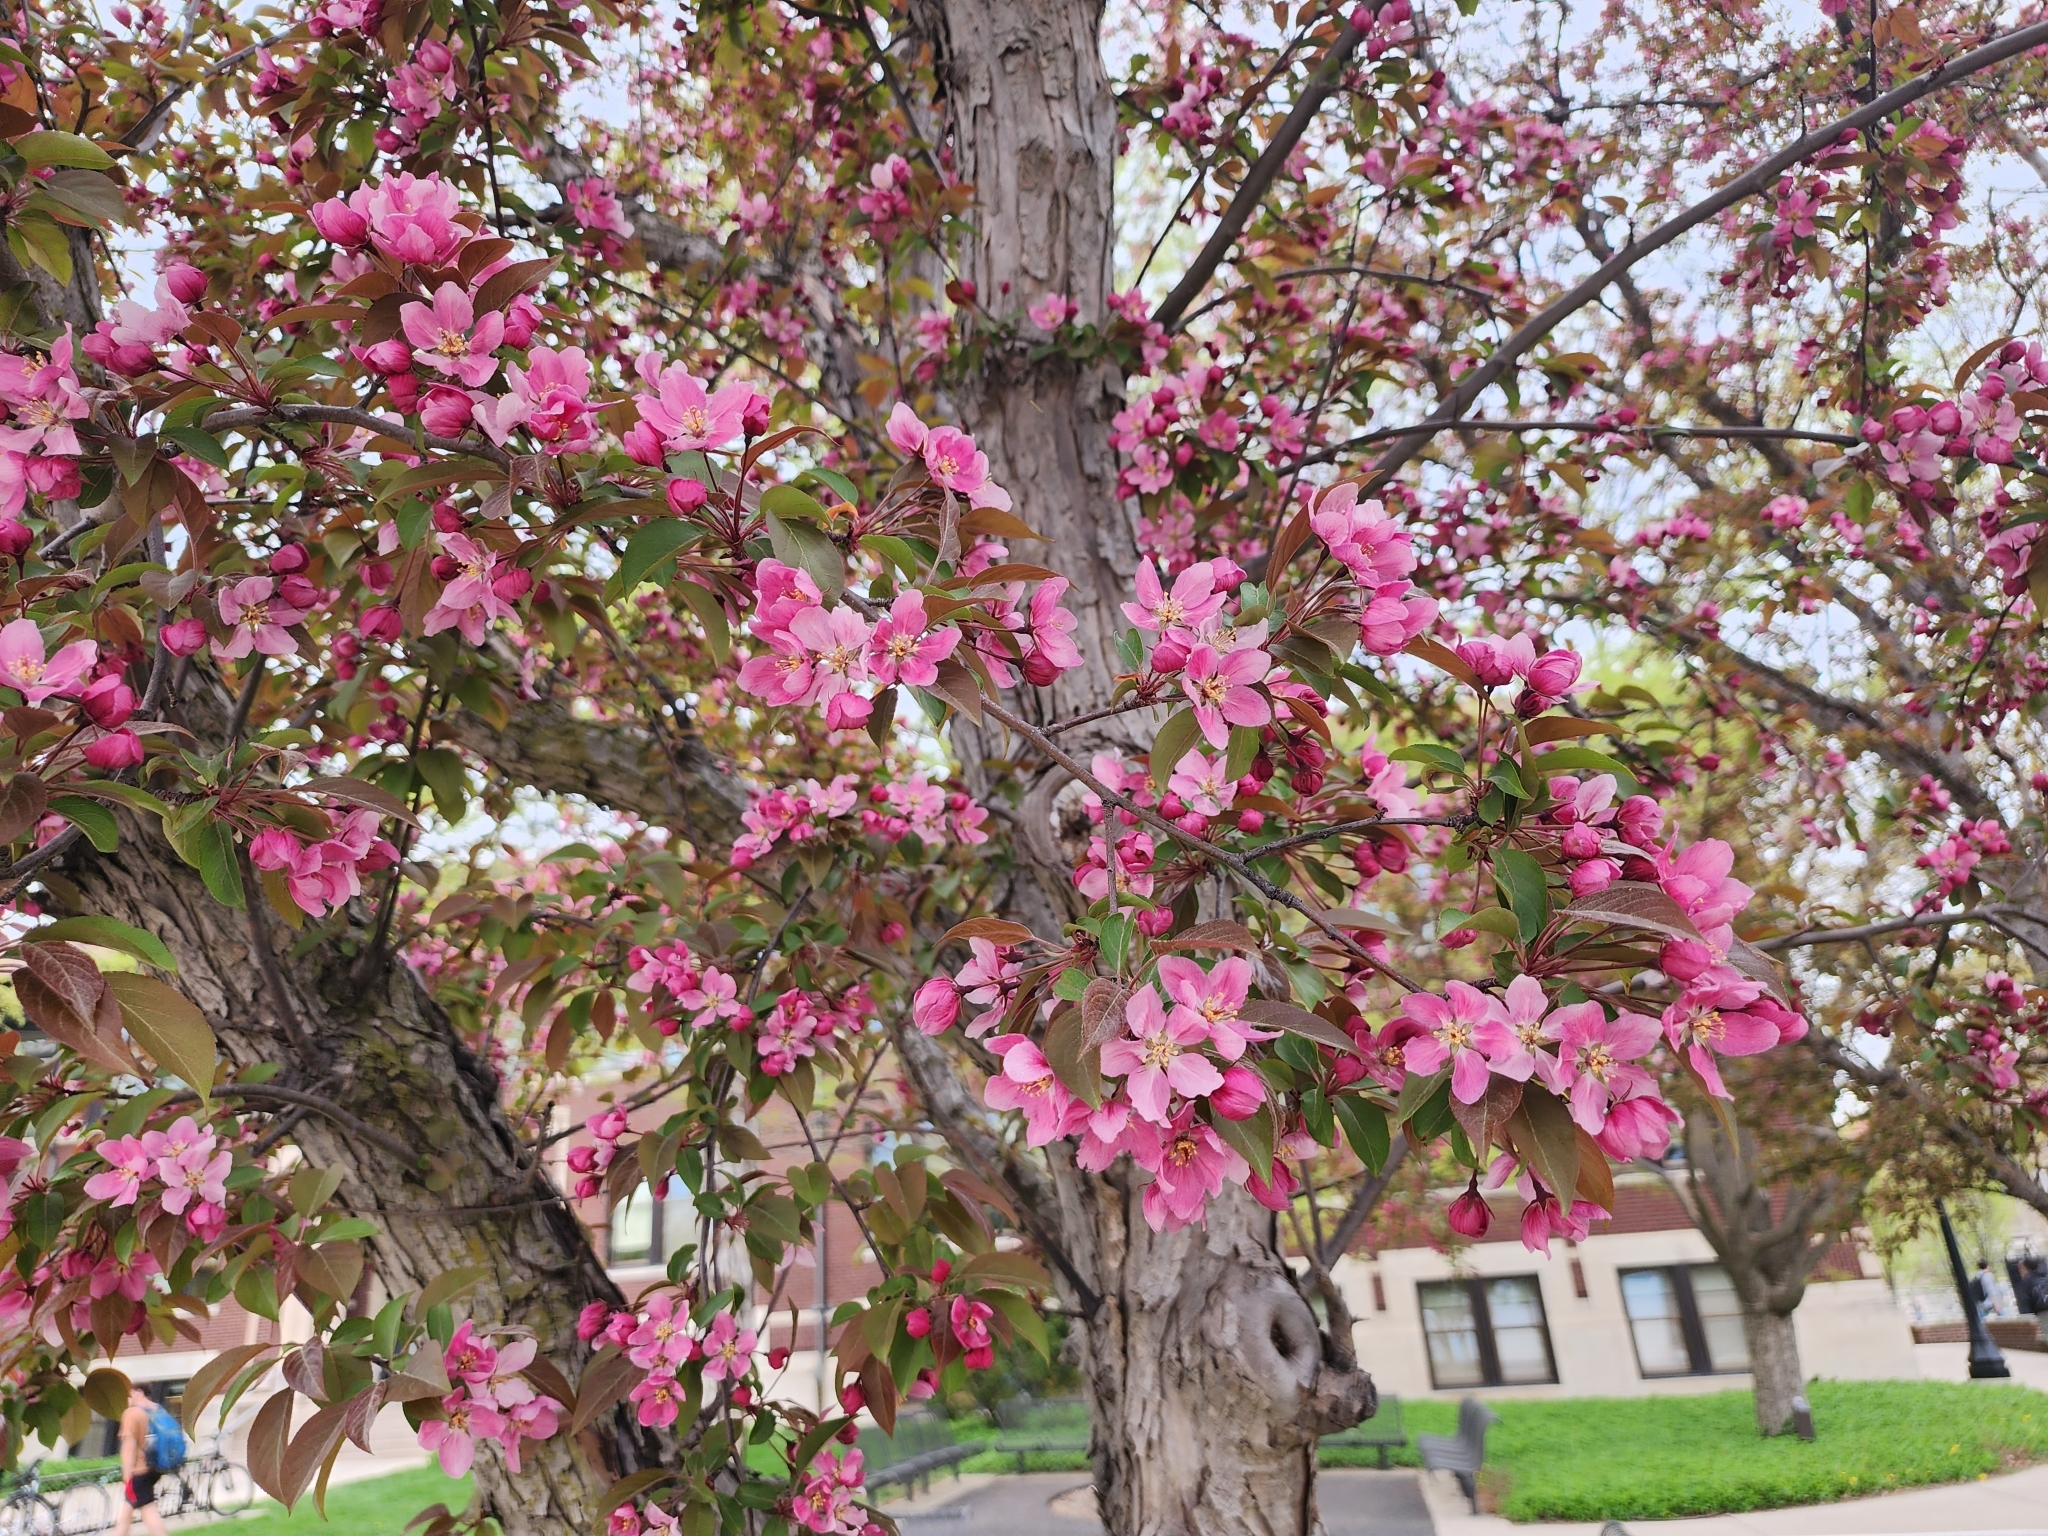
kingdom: Plantae
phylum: Tracheophyta
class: Magnoliopsida
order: Rosales
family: Rosaceae
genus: Malus
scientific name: Malus ioensis
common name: Iowa crab apple
